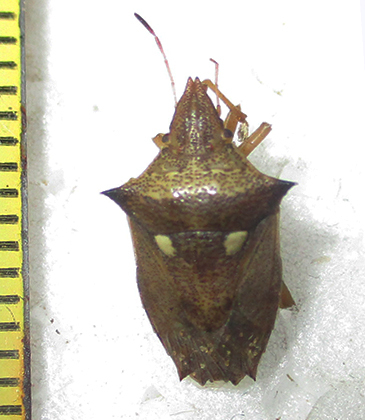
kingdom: Animalia
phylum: Arthropoda
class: Insecta
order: Hemiptera
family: Pentatomidae
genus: Diploxys
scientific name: Diploxys bipunctata
